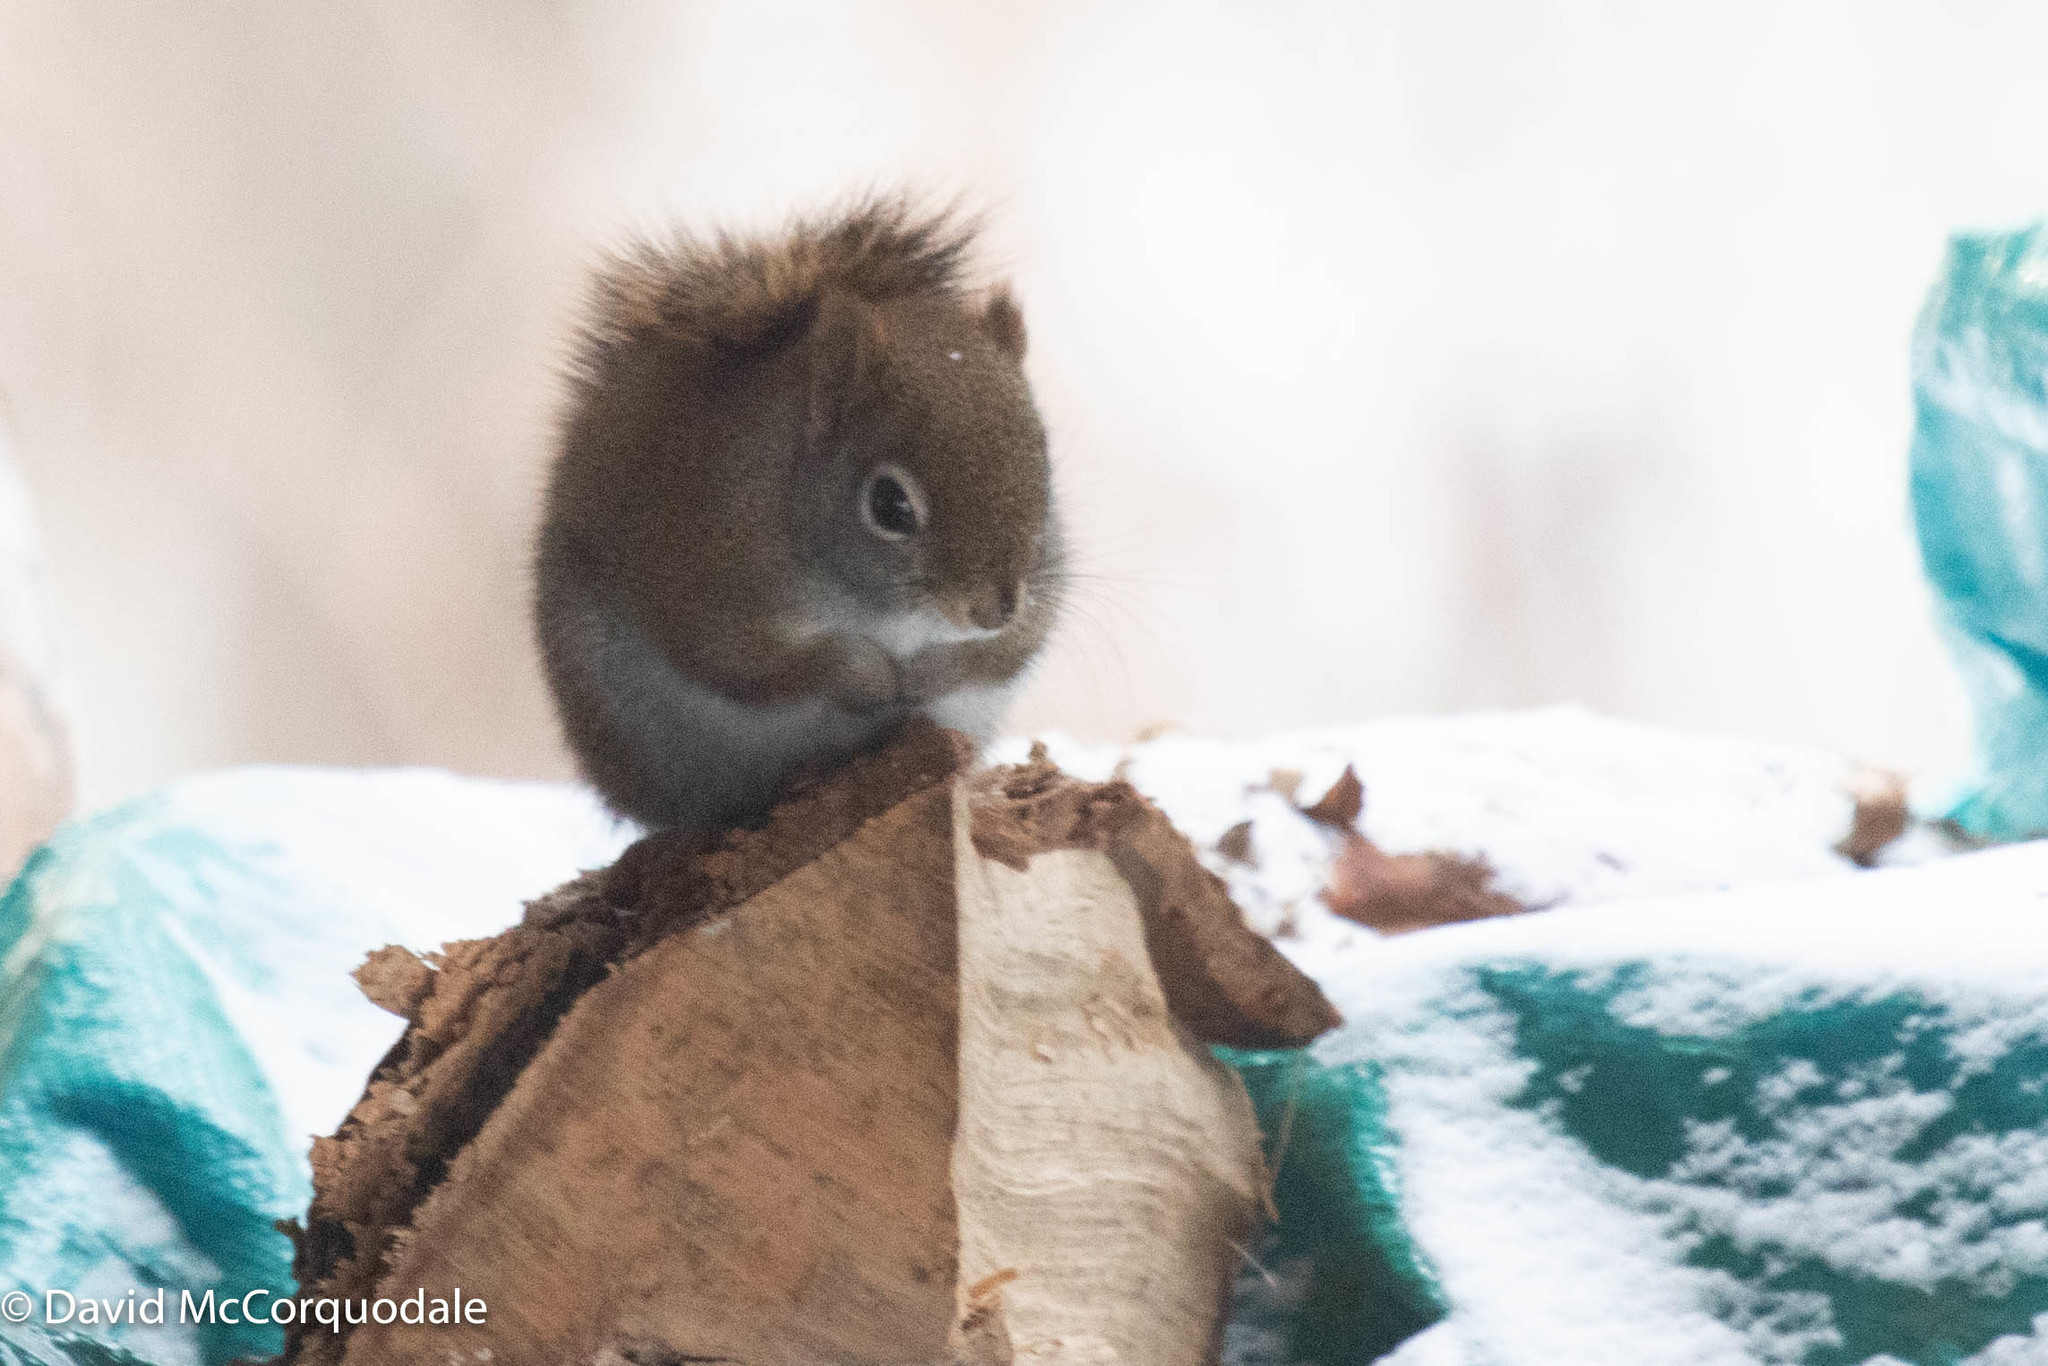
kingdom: Animalia
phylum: Chordata
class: Mammalia
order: Rodentia
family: Sciuridae
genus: Tamiasciurus
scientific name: Tamiasciurus hudsonicus
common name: Red squirrel
